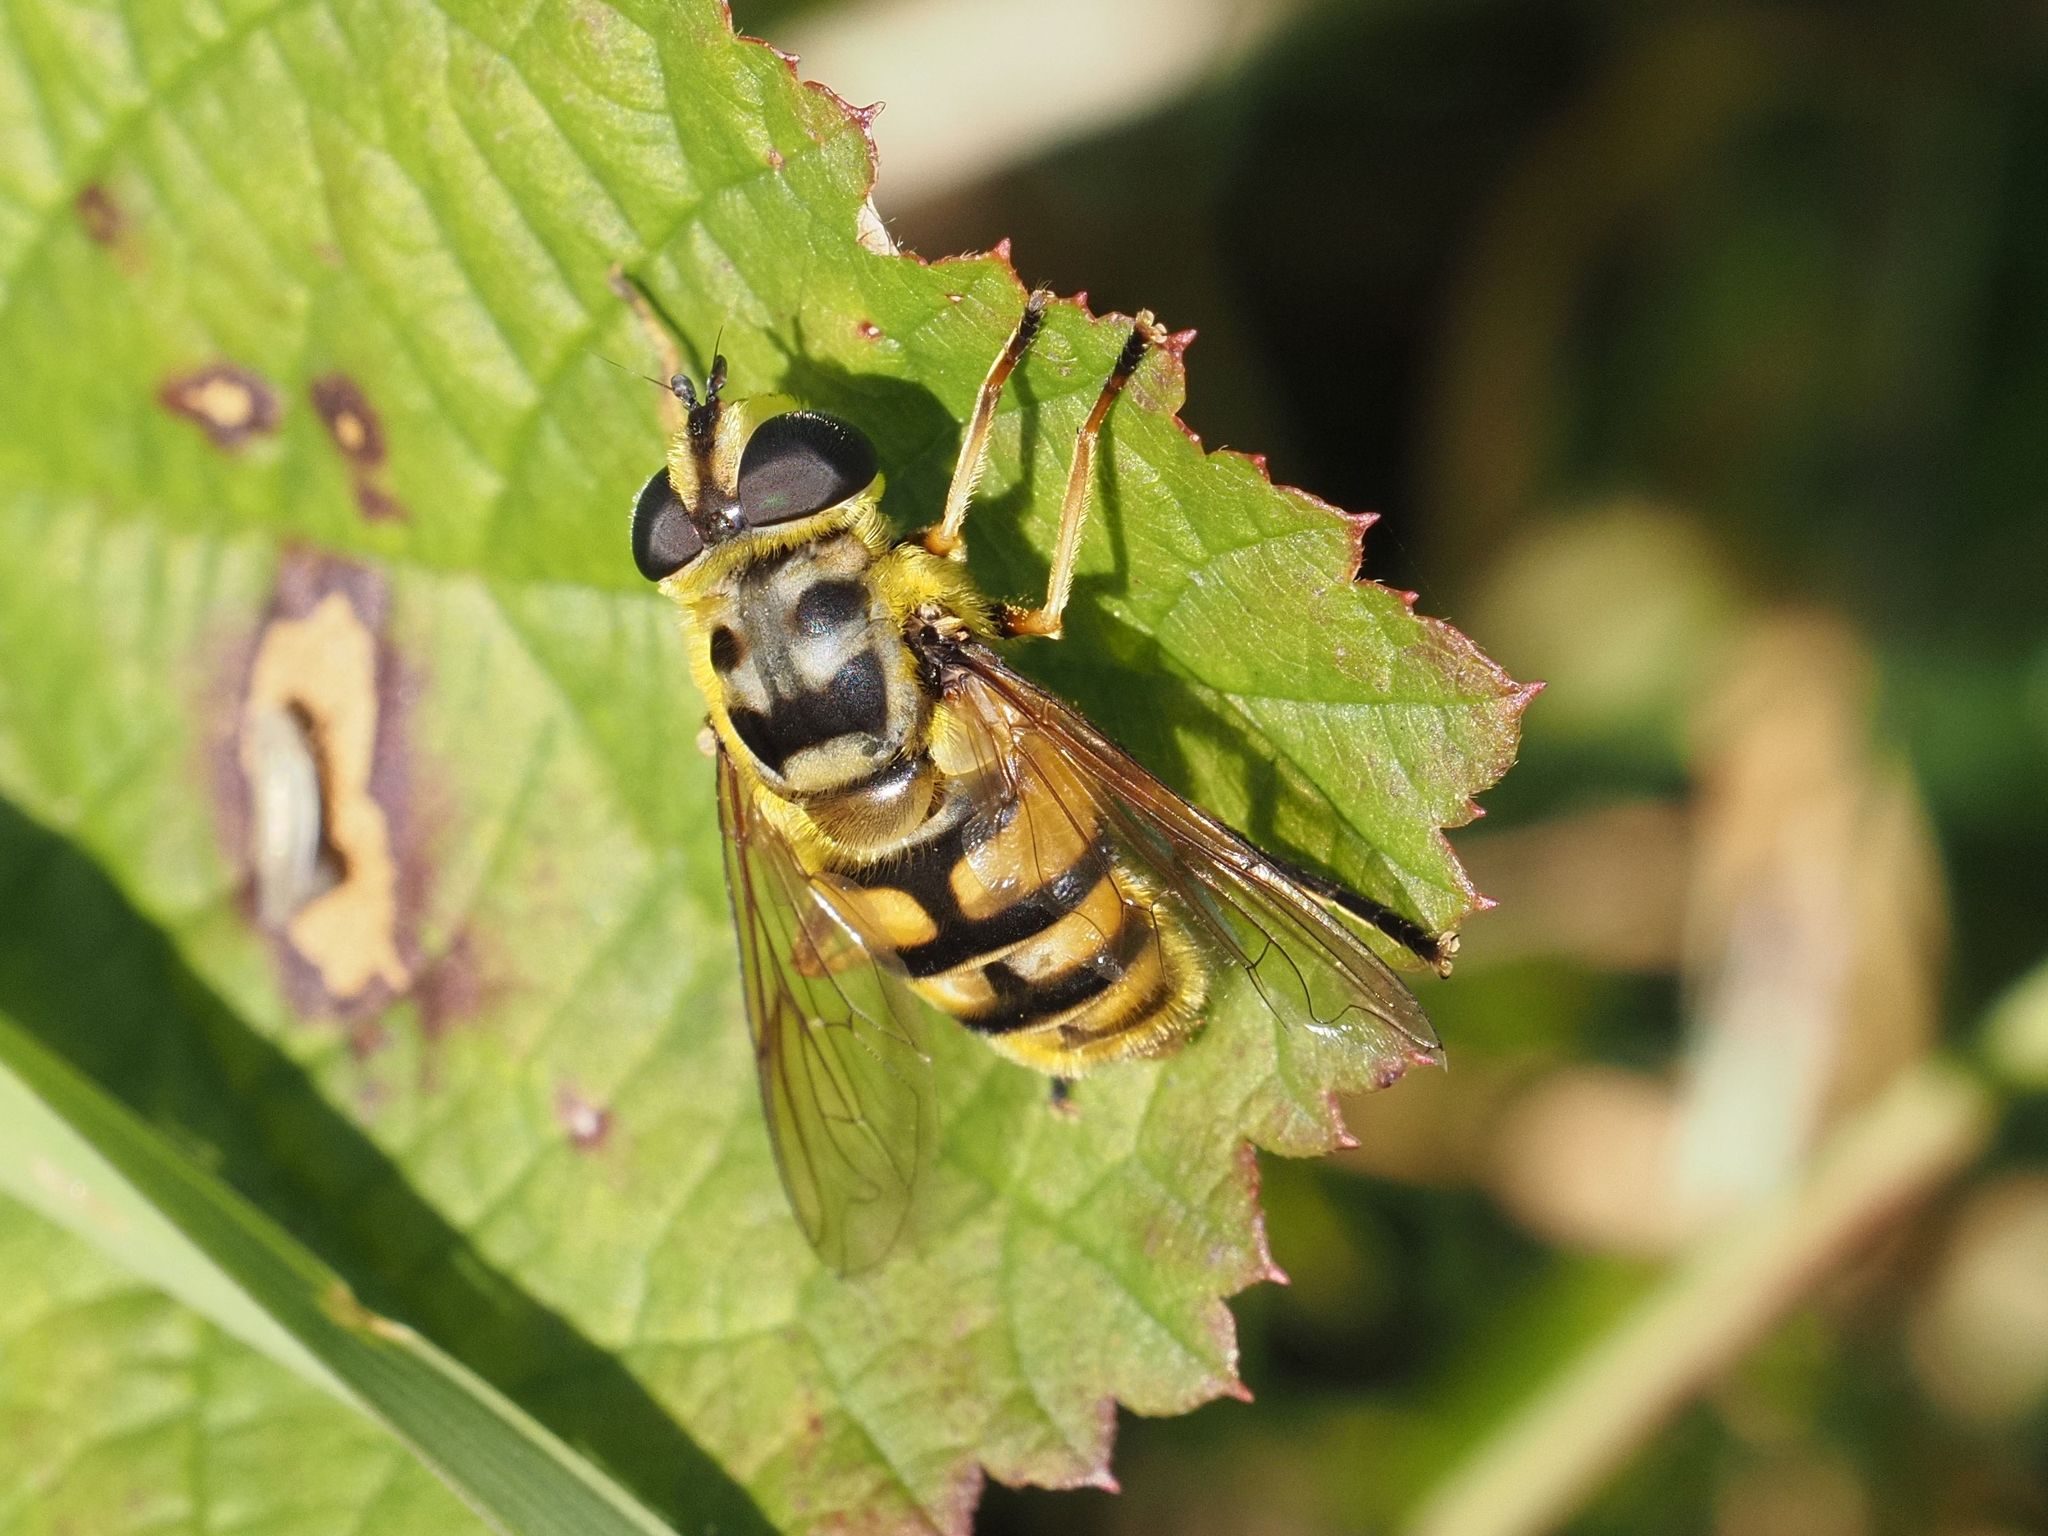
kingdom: Animalia
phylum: Arthropoda
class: Insecta
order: Diptera
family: Syrphidae
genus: Myathropa
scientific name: Myathropa florea
